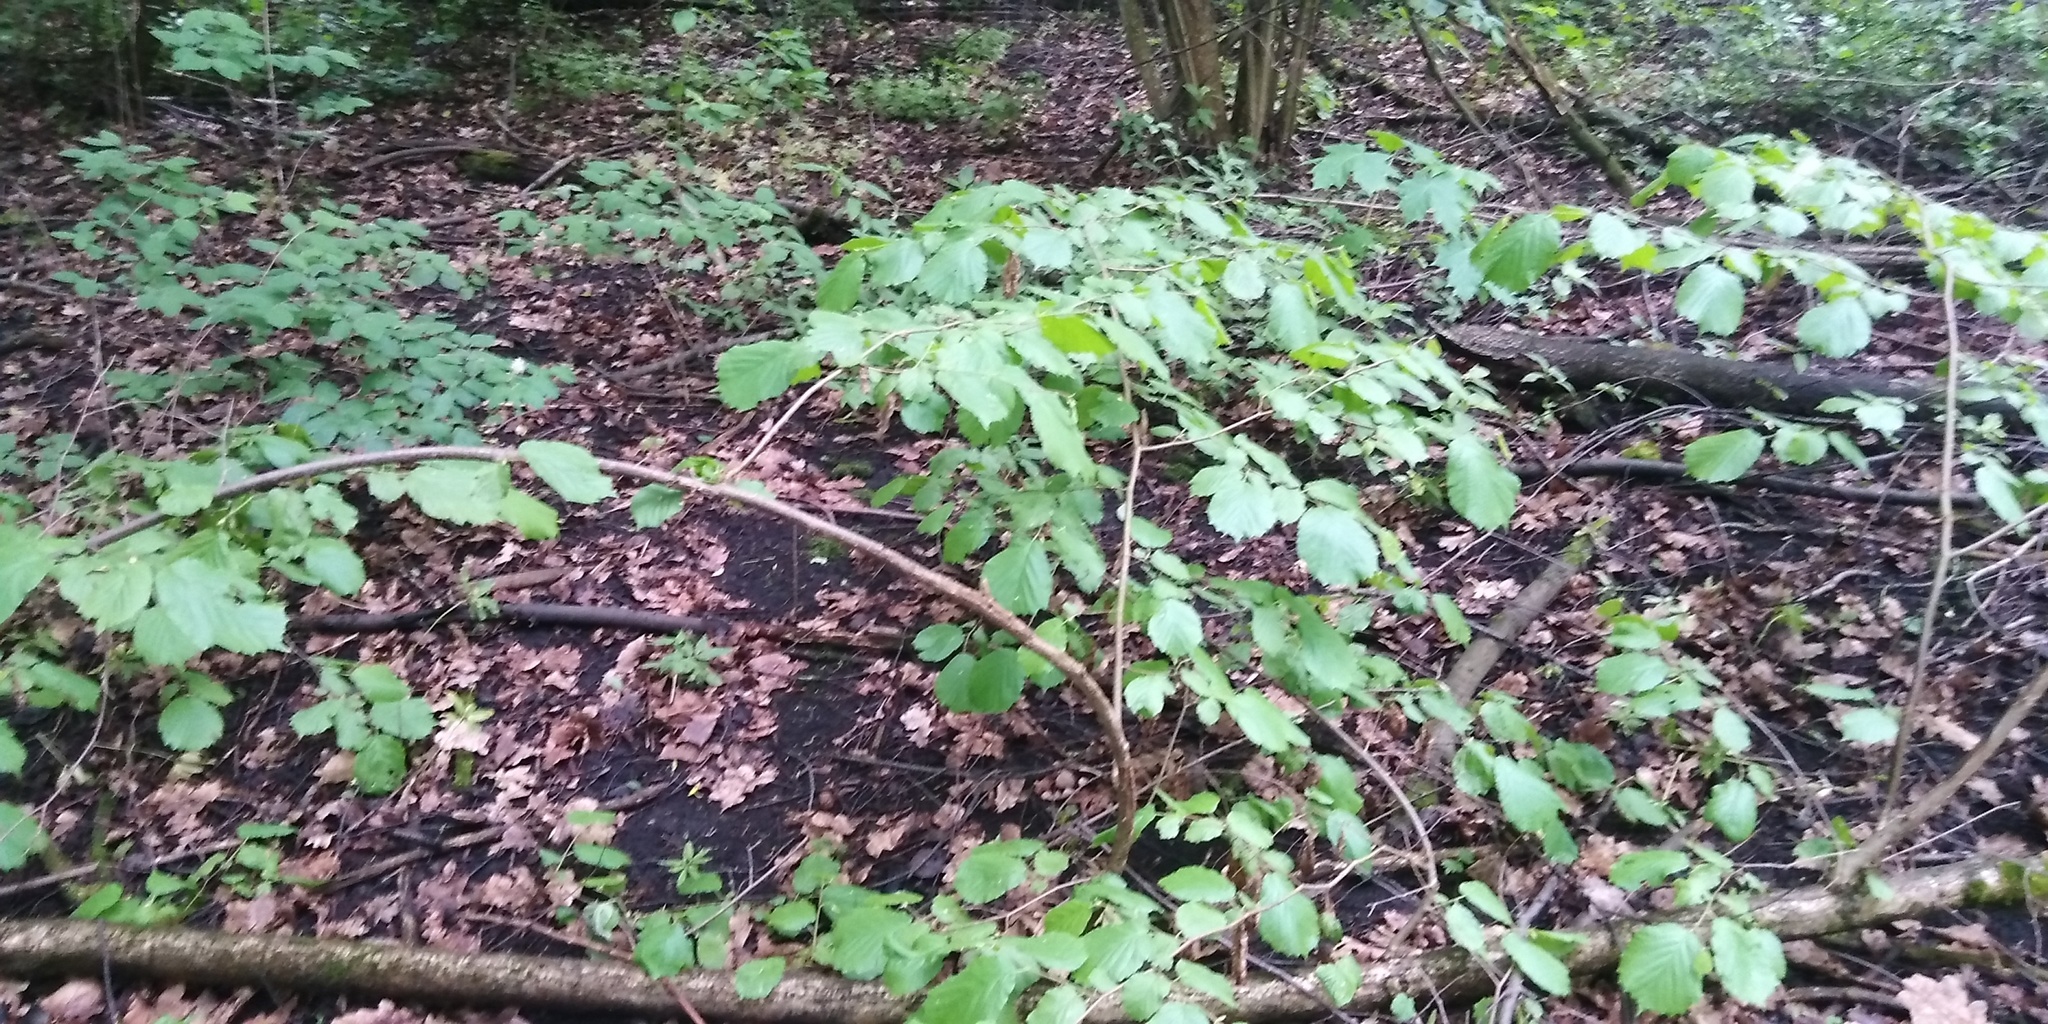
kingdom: Plantae
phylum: Tracheophyta
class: Magnoliopsida
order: Fagales
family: Betulaceae
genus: Corylus
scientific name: Corylus avellana
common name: European hazel
